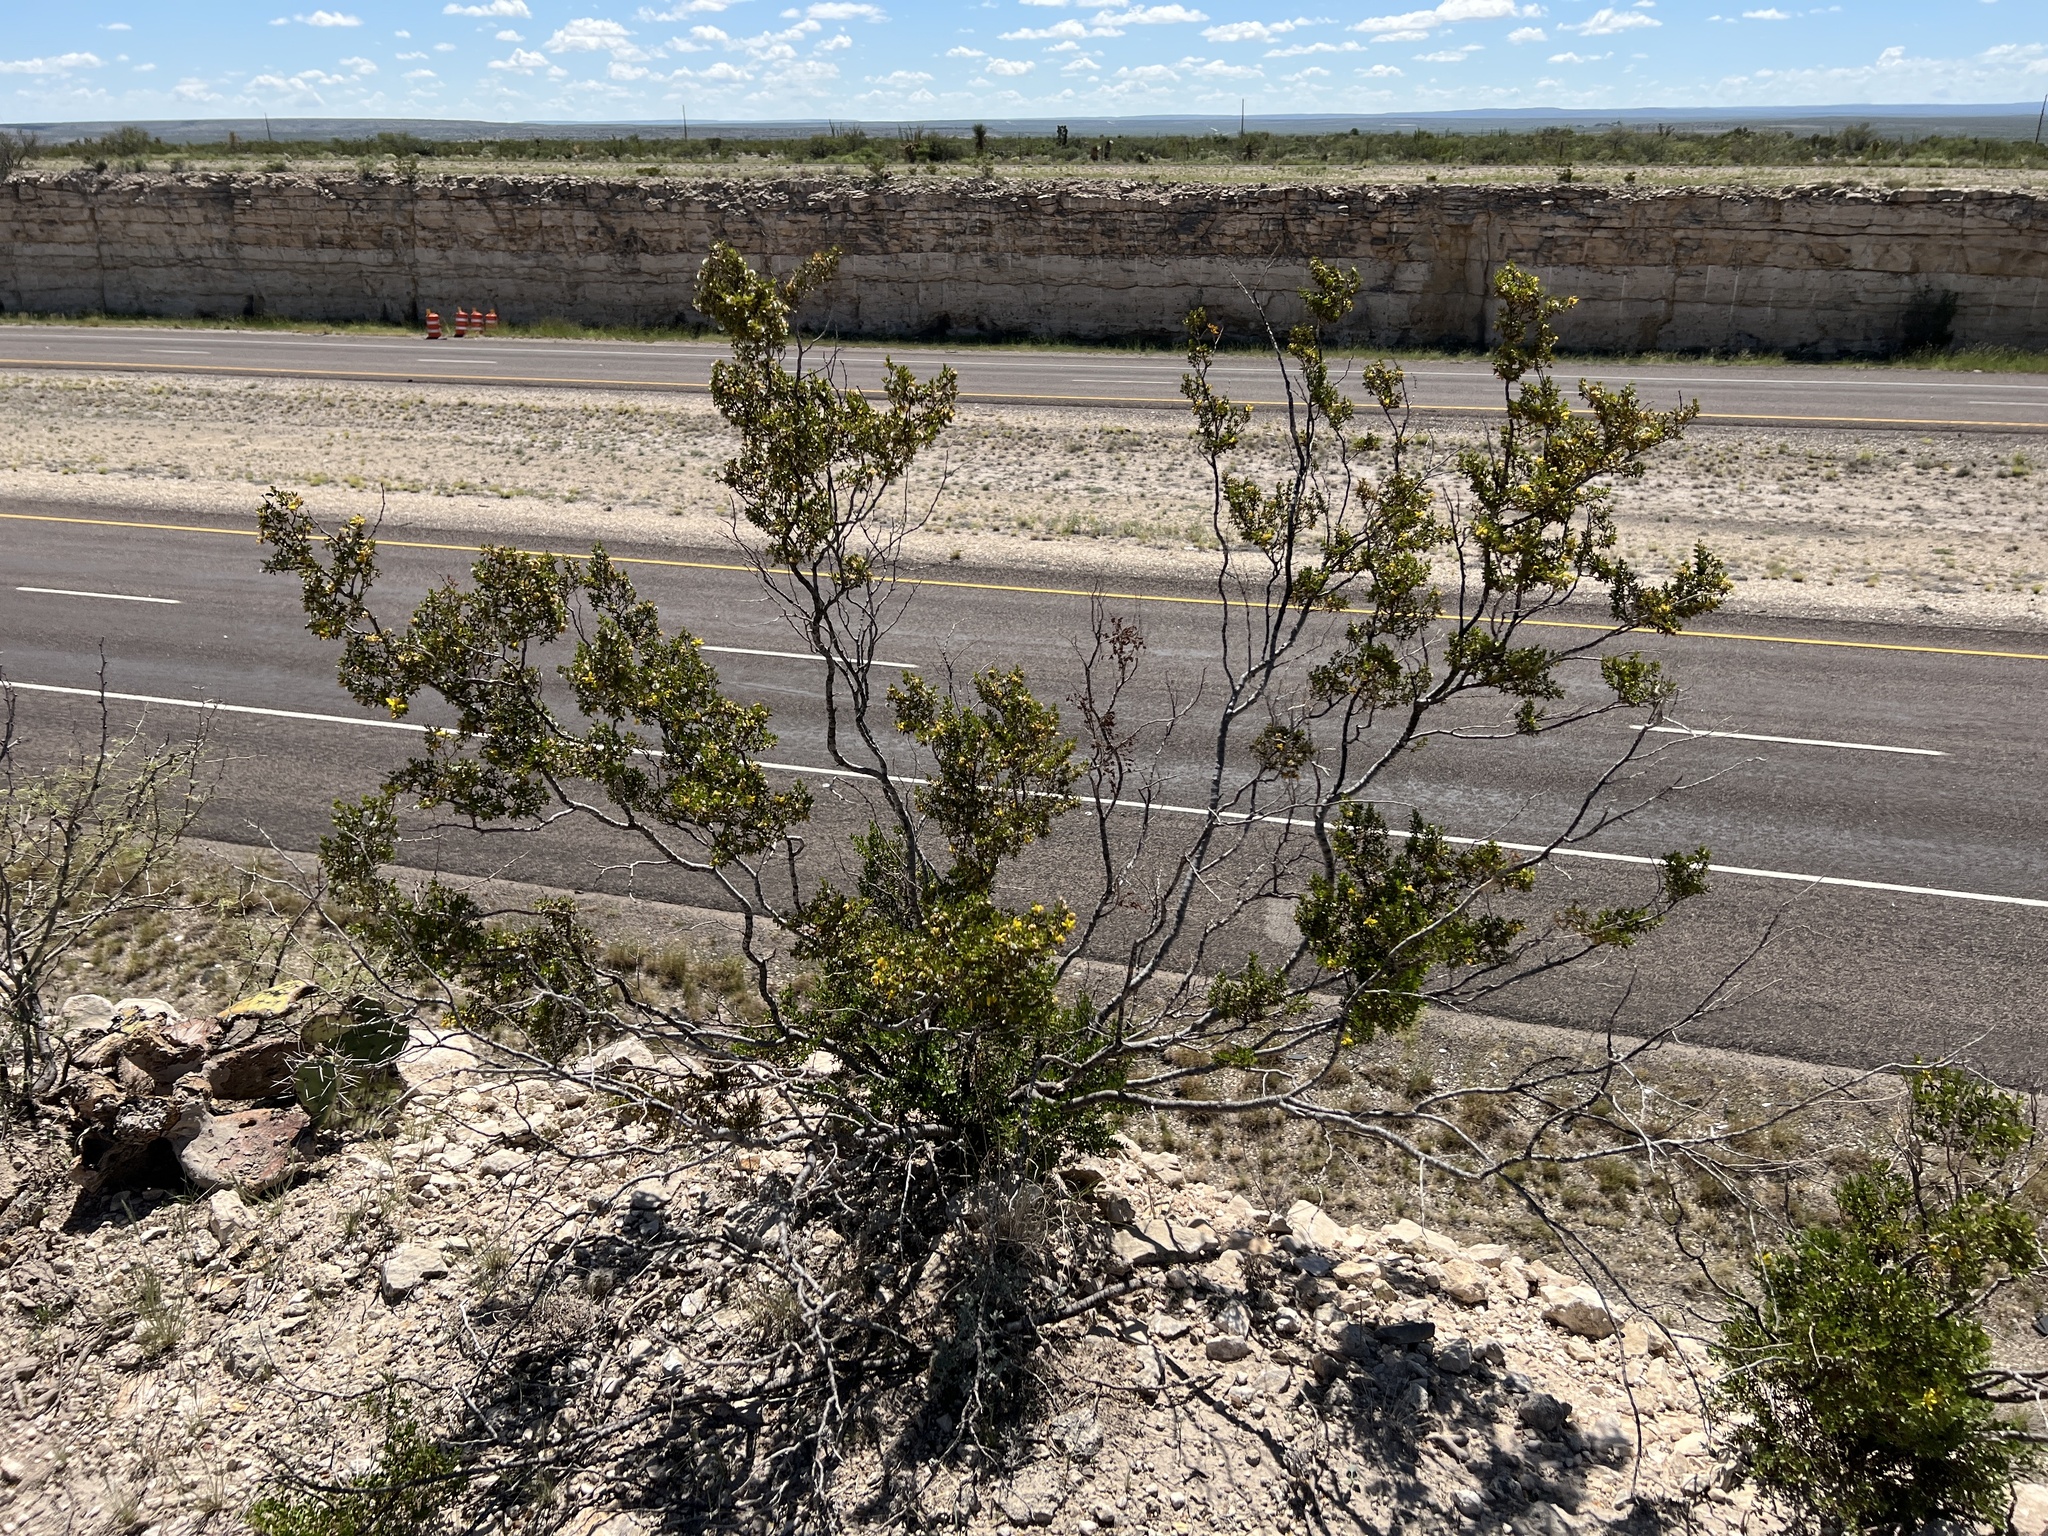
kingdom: Plantae
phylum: Tracheophyta
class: Magnoliopsida
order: Zygophyllales
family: Zygophyllaceae
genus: Larrea
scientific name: Larrea tridentata
